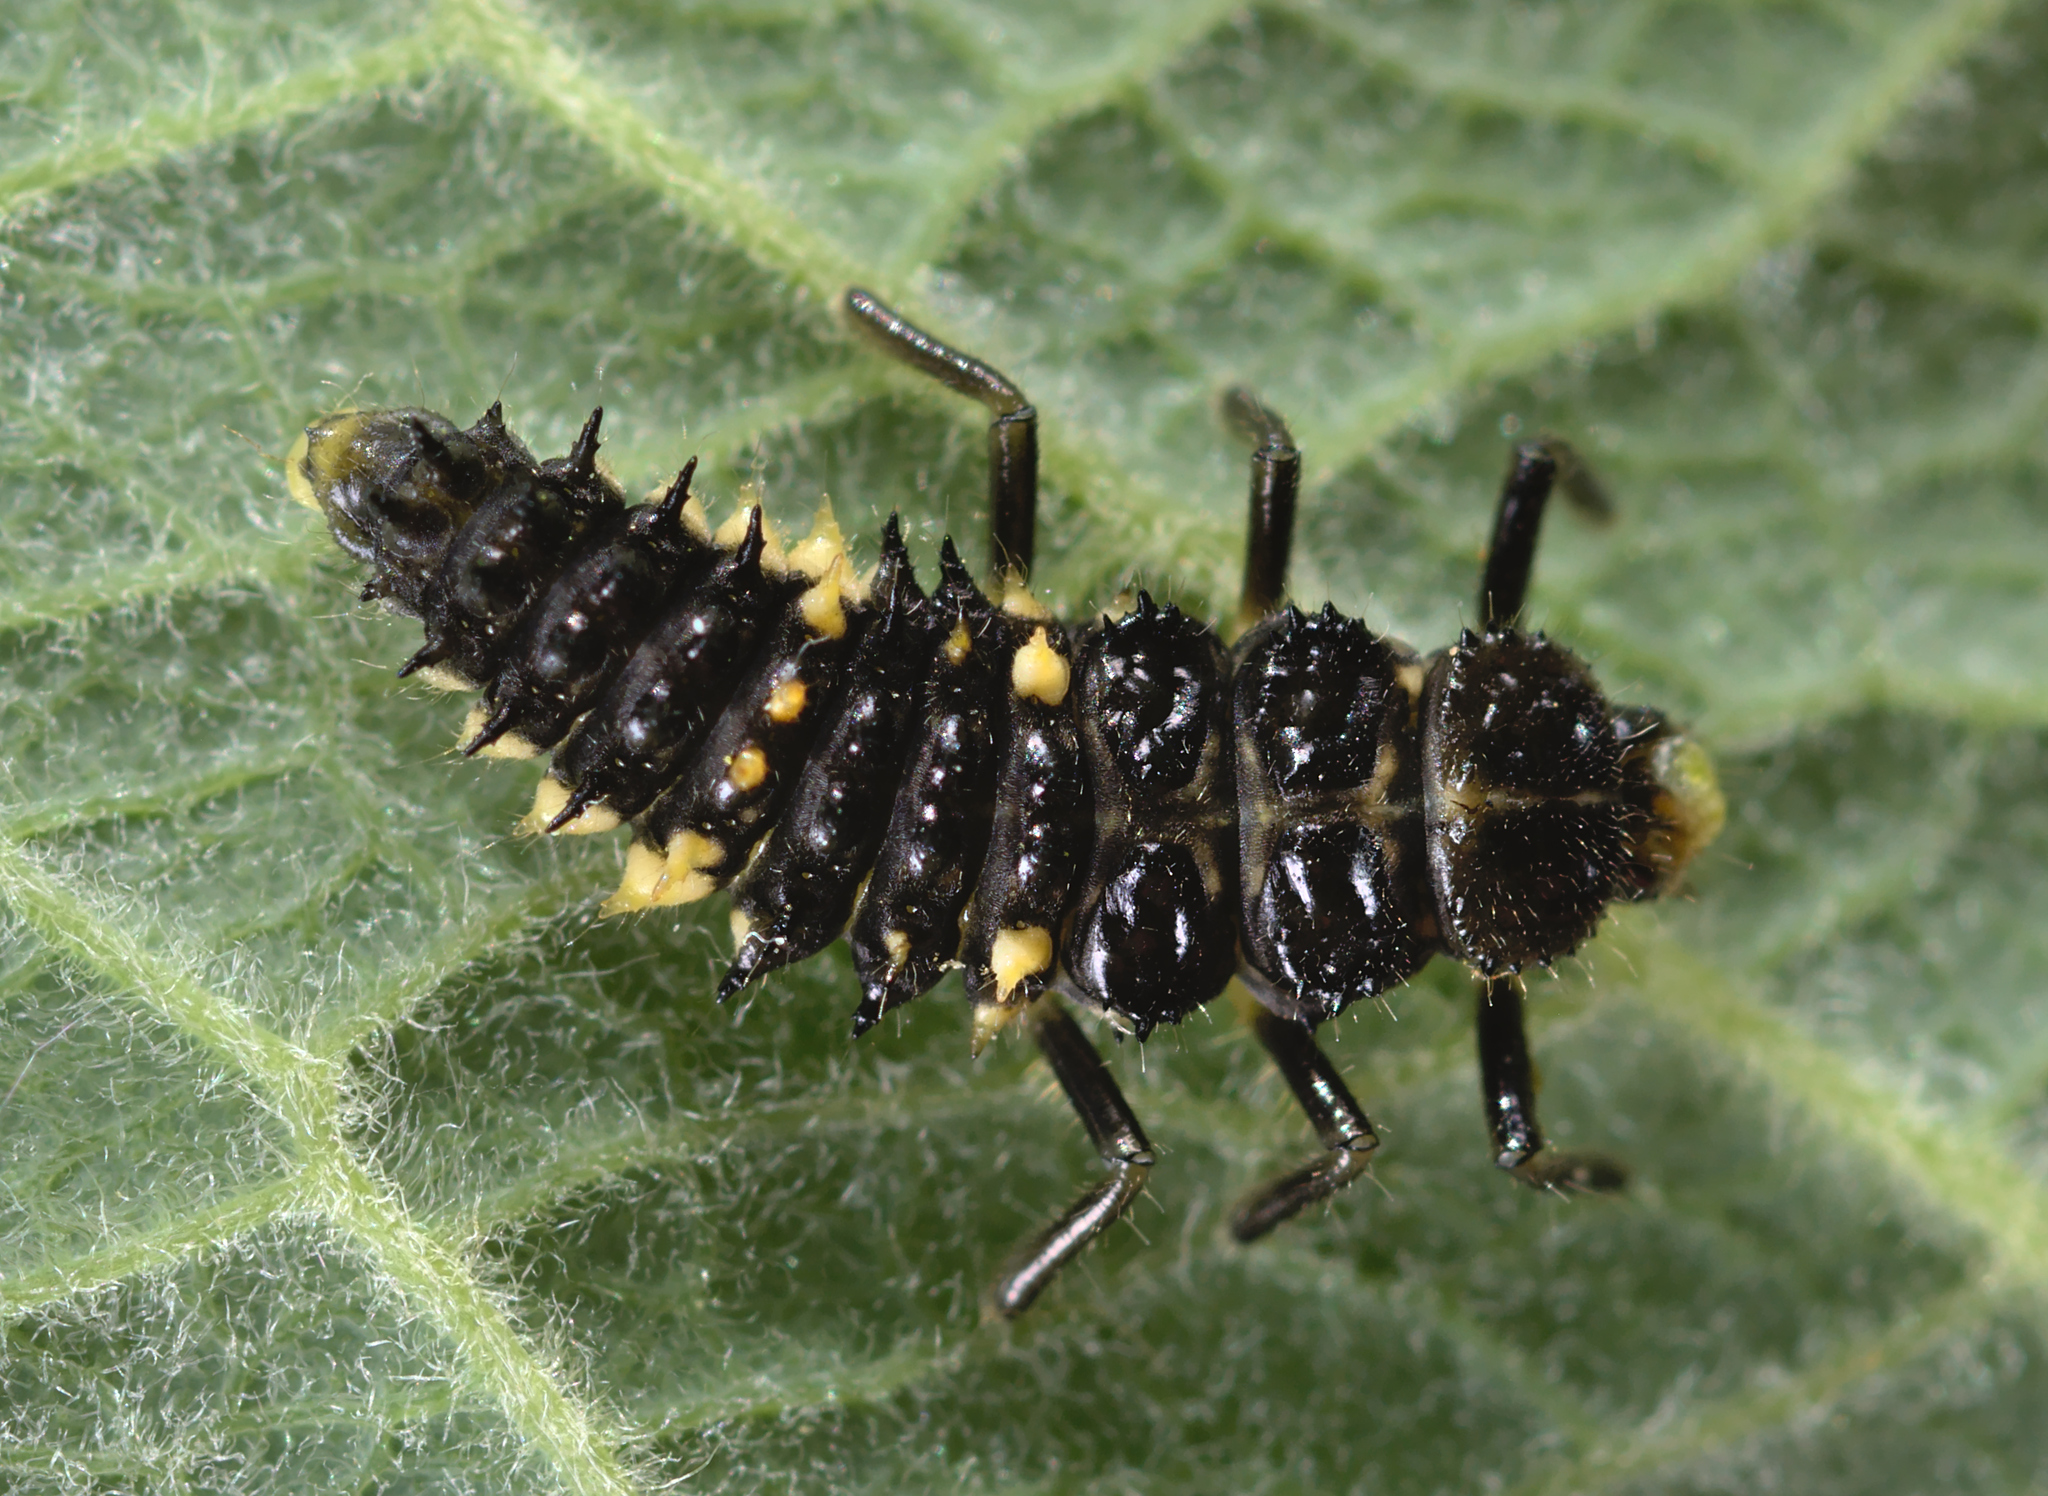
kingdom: Animalia
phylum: Arthropoda
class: Insecta
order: Coleoptera
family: Coccinellidae
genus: Calvia
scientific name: Calvia quatuordecimguttata
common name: Cream-spot ladybird
